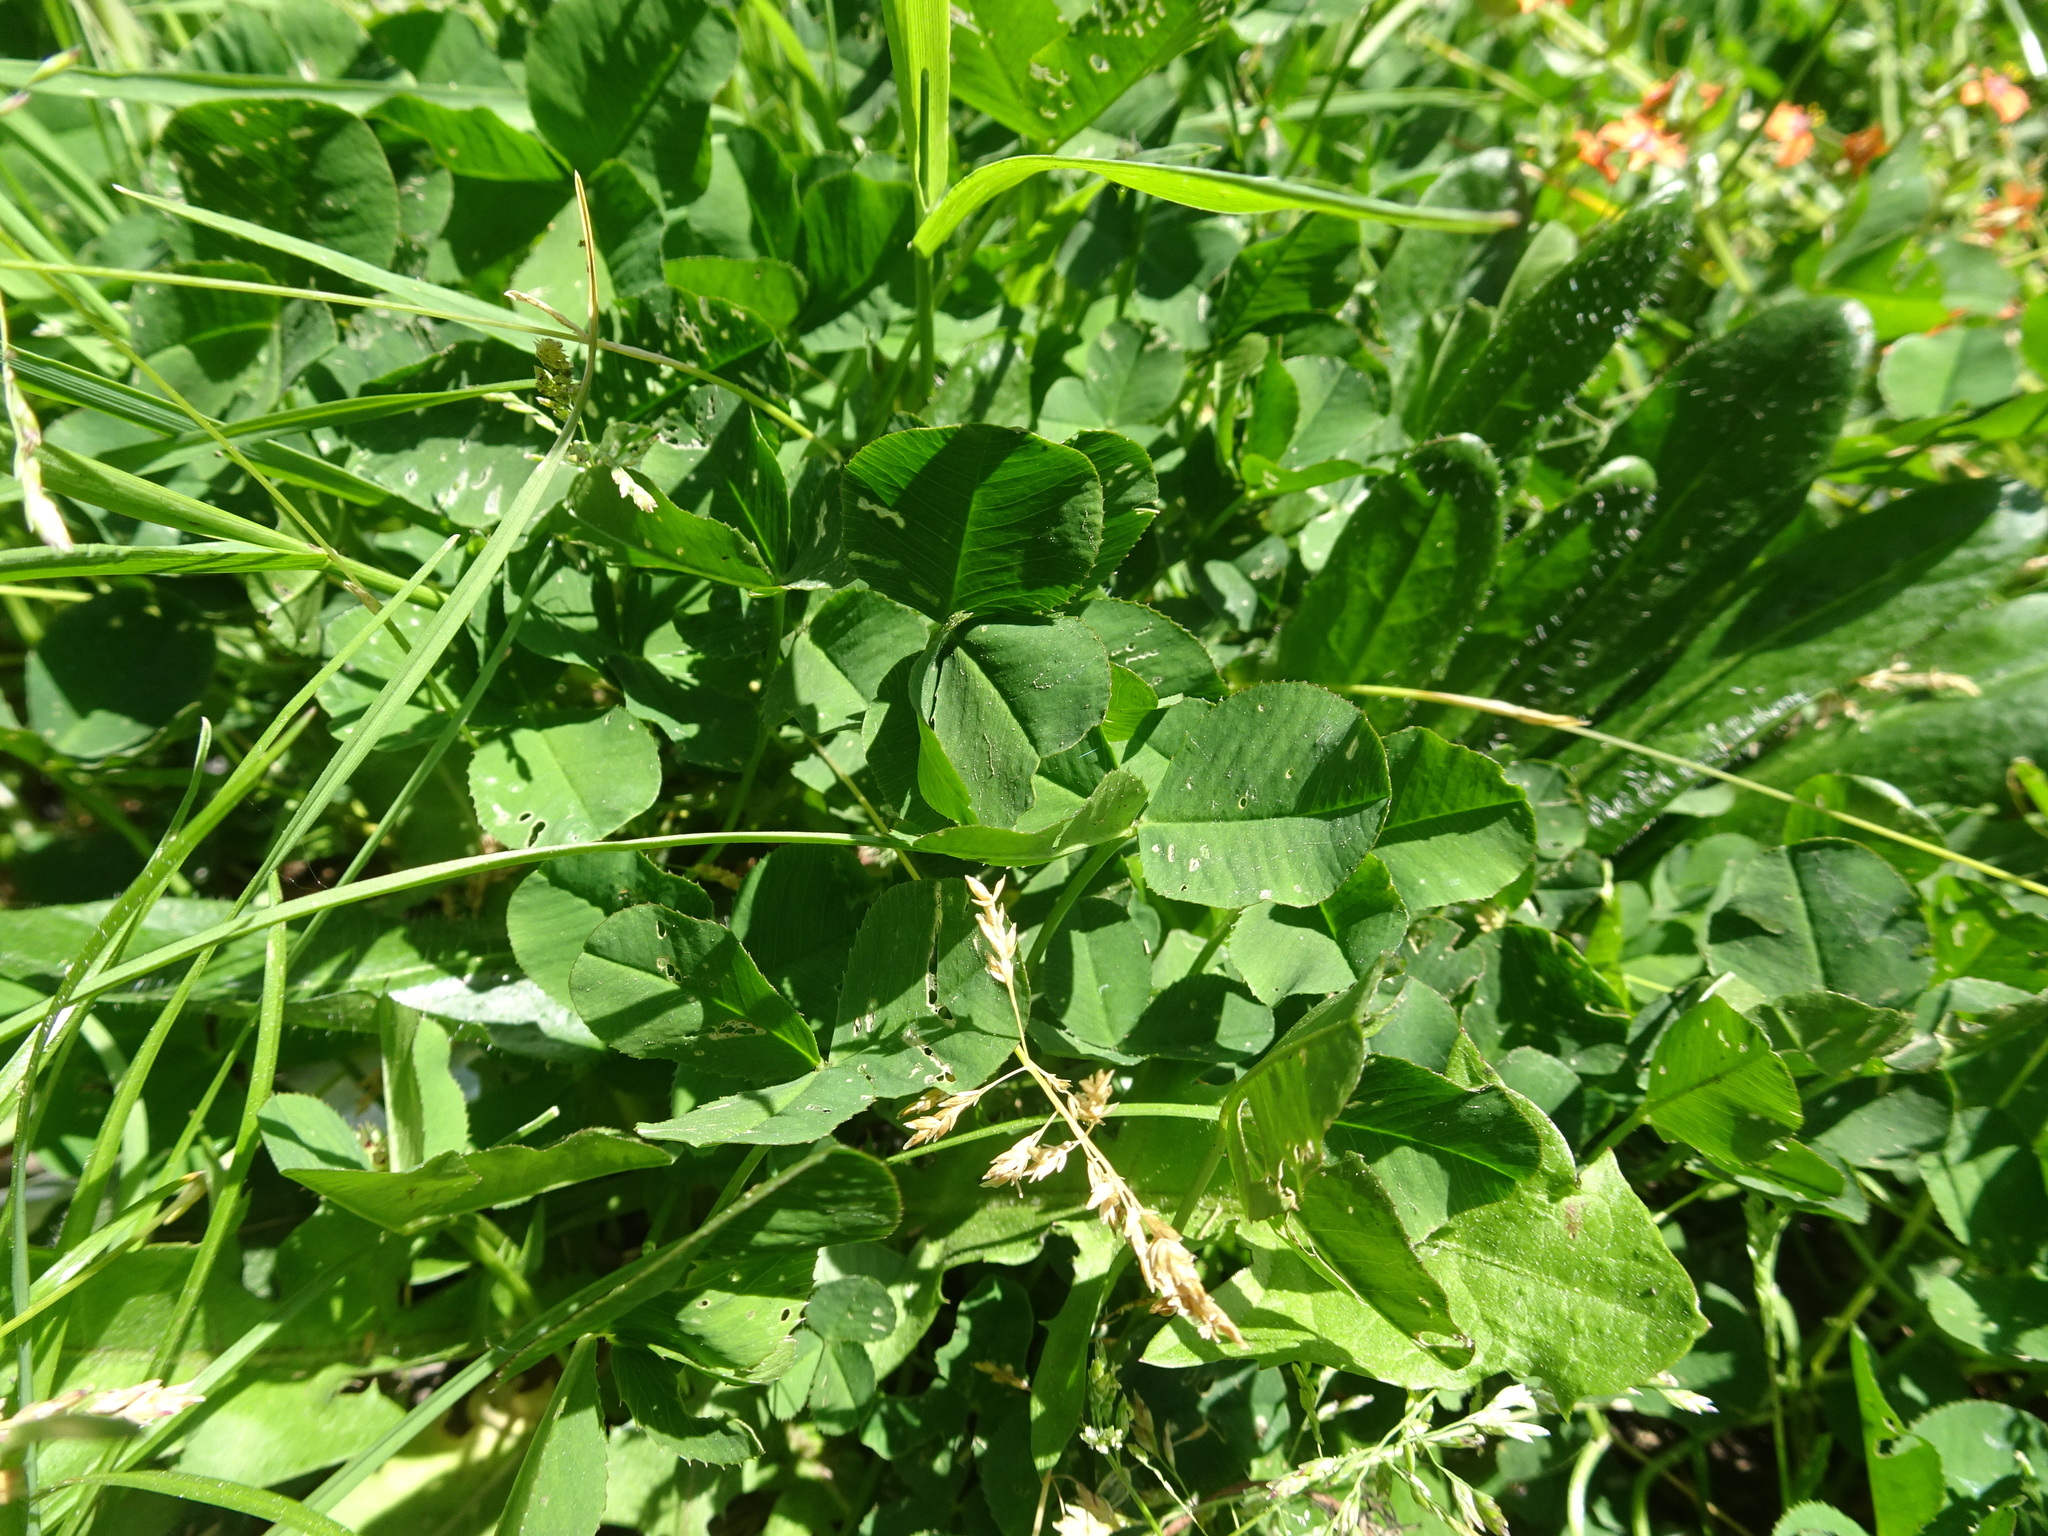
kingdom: Plantae
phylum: Tracheophyta
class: Magnoliopsida
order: Fabales
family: Fabaceae
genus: Trifolium
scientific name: Trifolium repens
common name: White clover
